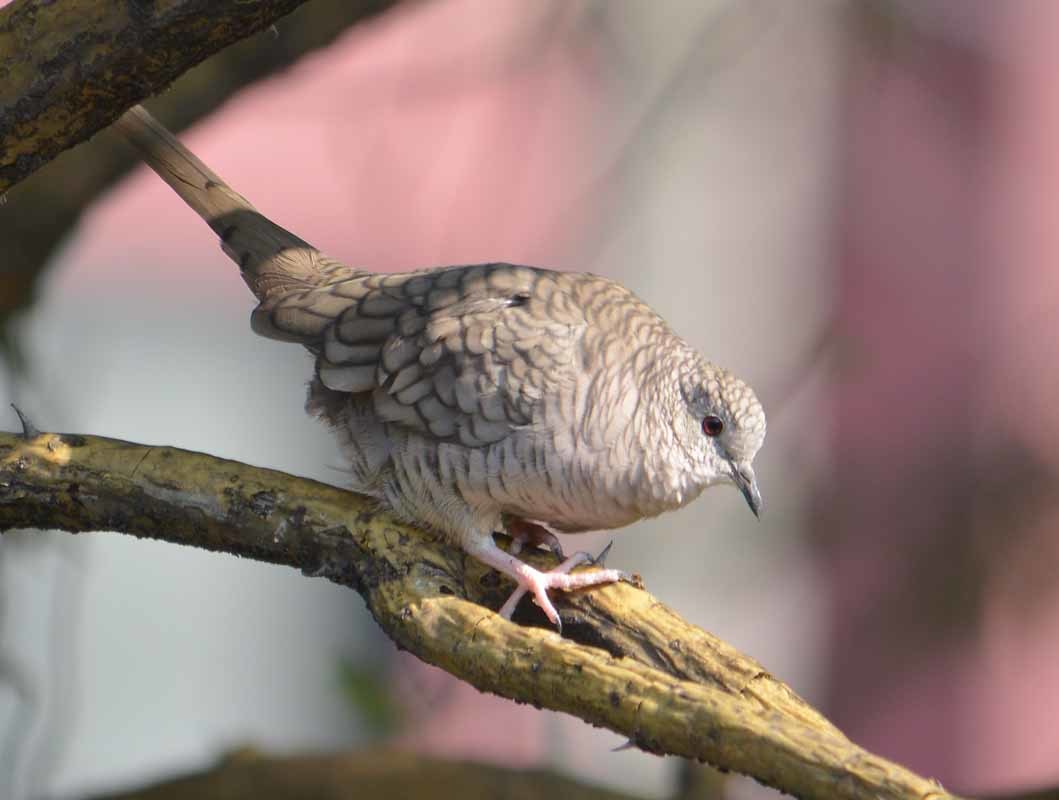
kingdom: Animalia
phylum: Chordata
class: Aves
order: Columbiformes
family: Columbidae
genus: Columbina
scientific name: Columbina inca
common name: Inca dove
